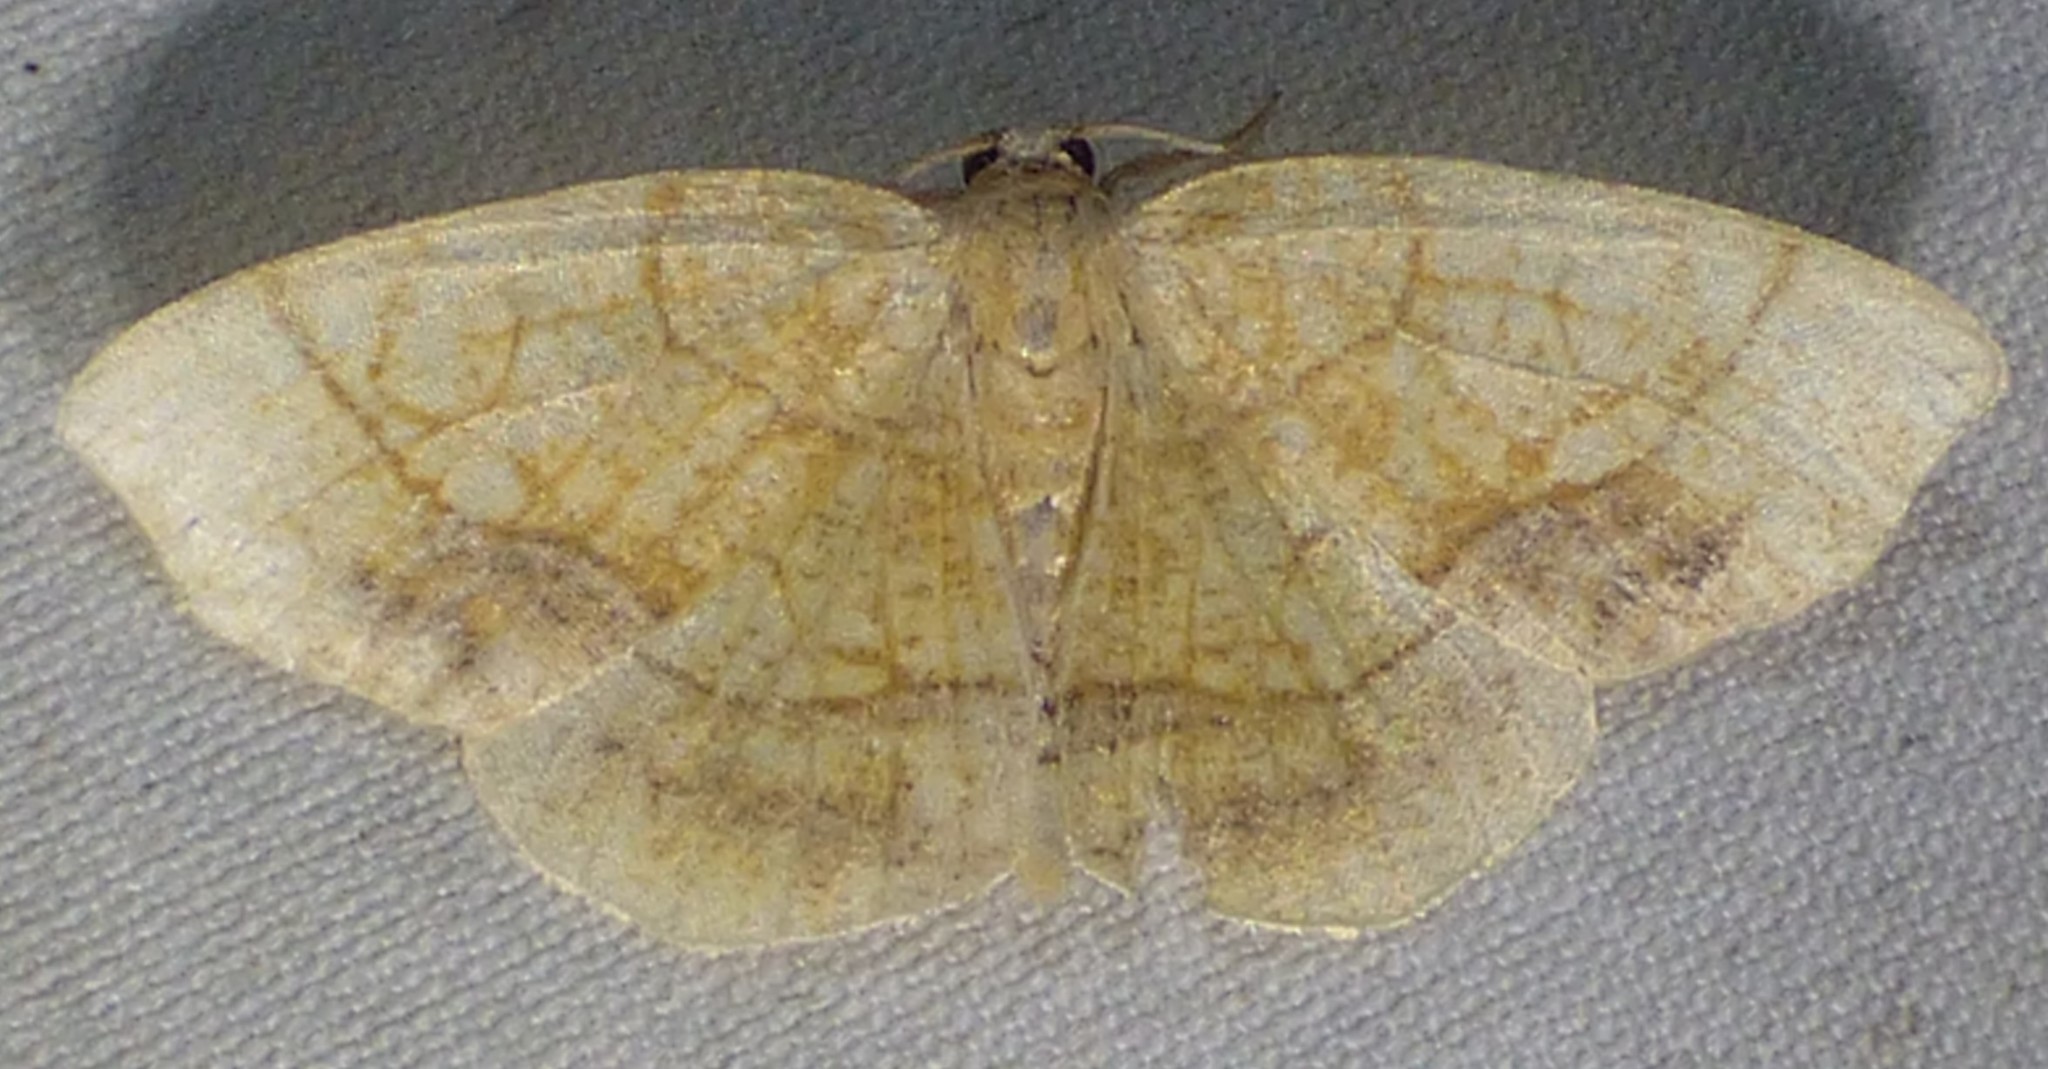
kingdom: Animalia
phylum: Arthropoda
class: Insecta
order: Lepidoptera
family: Geometridae
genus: Nematocampa
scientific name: Nematocampa resistaria
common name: Horned spanworm moth
